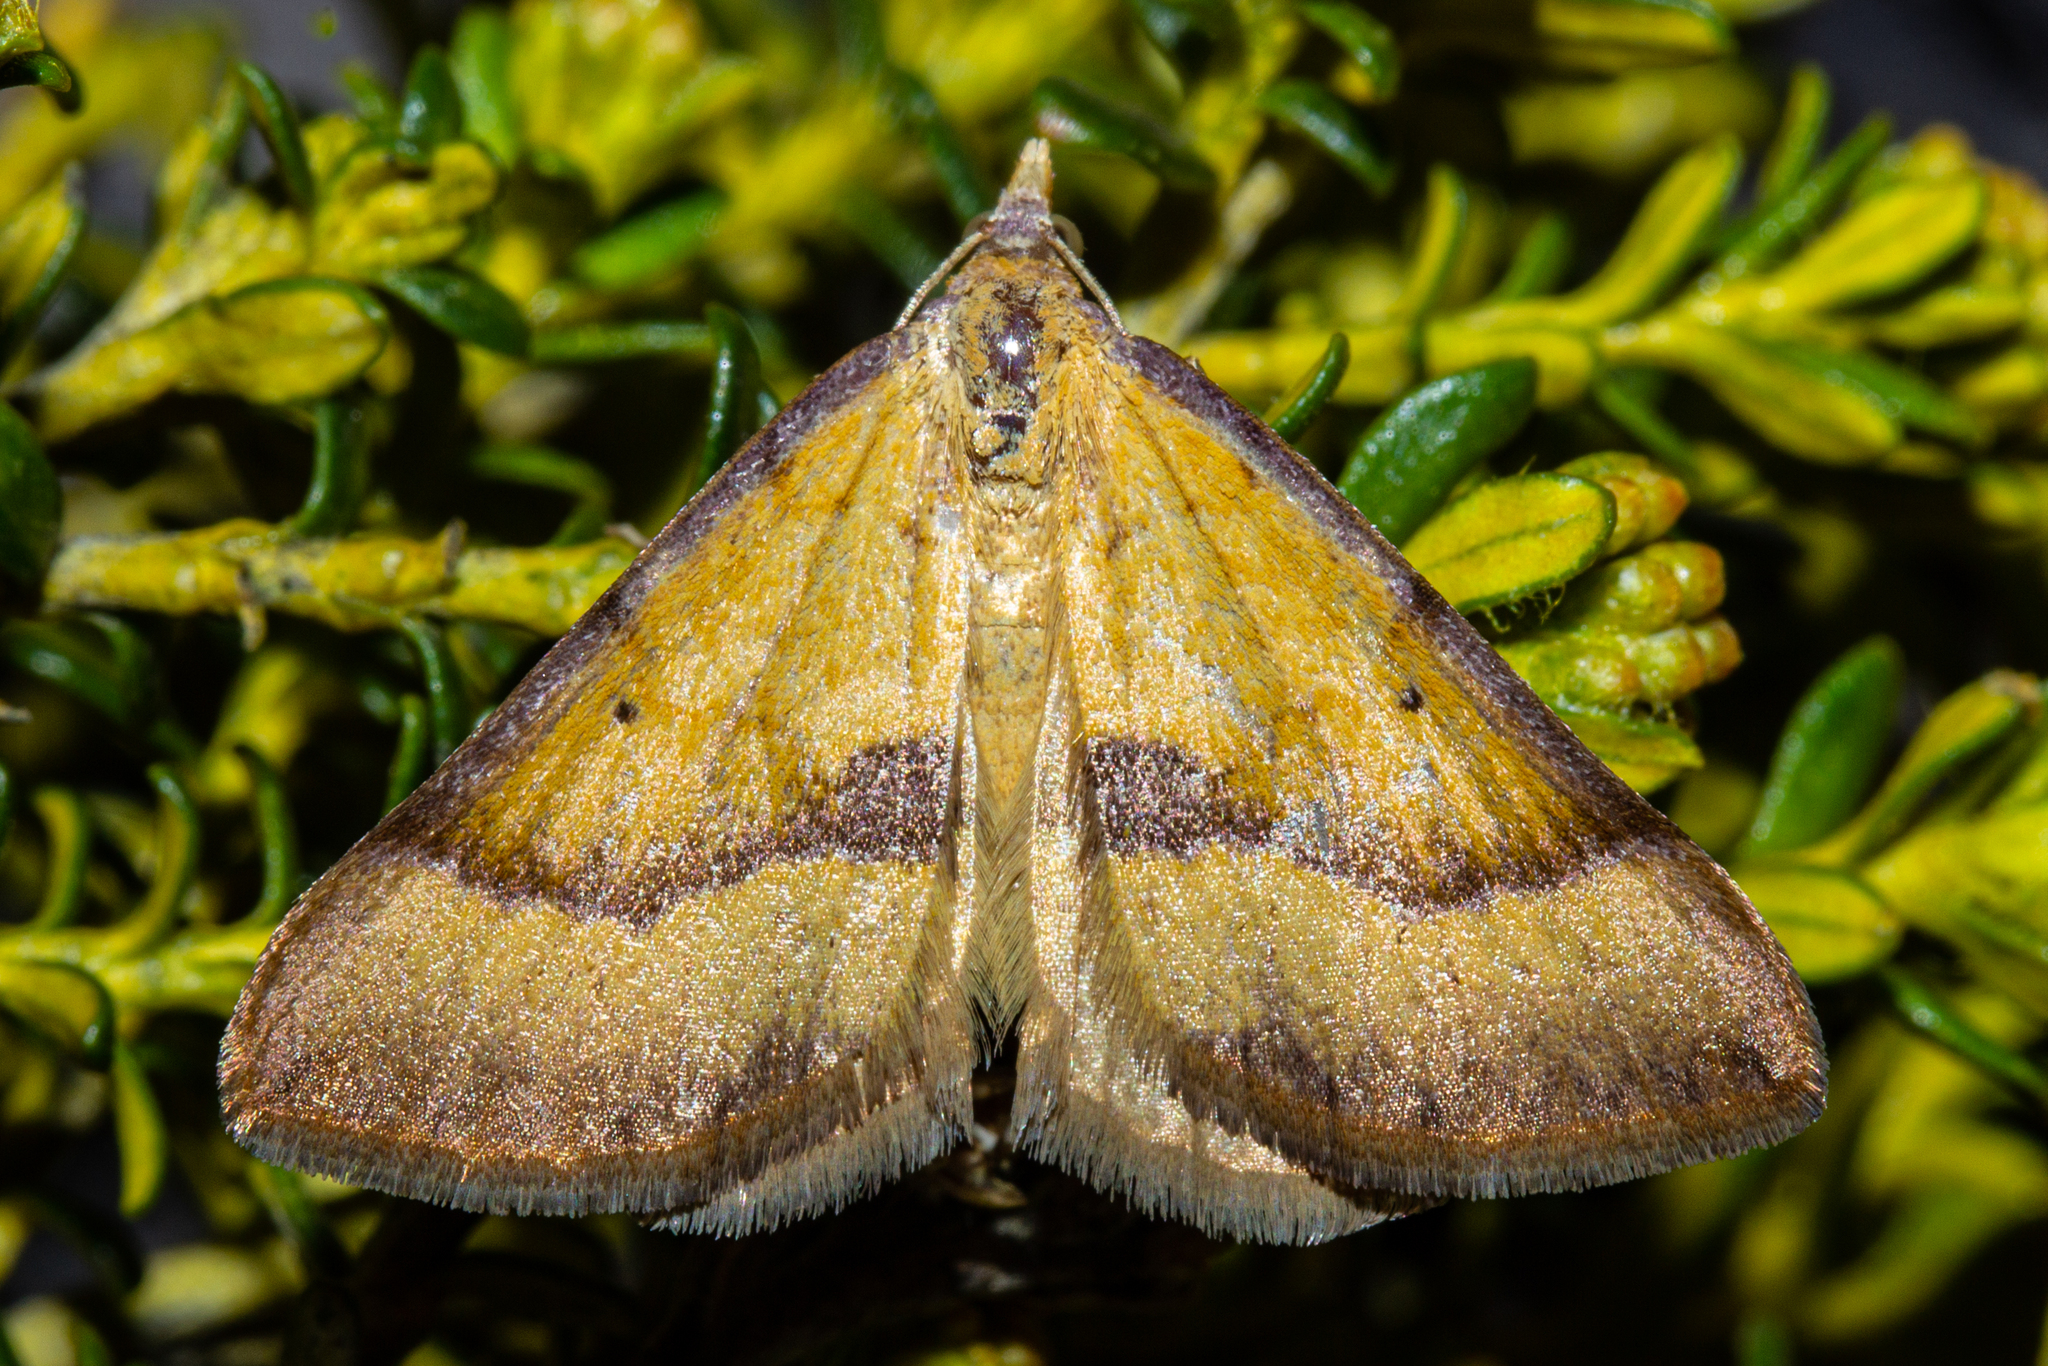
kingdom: Animalia
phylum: Arthropoda
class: Insecta
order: Lepidoptera
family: Geometridae
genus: Anachloris
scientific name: Anachloris subochraria
